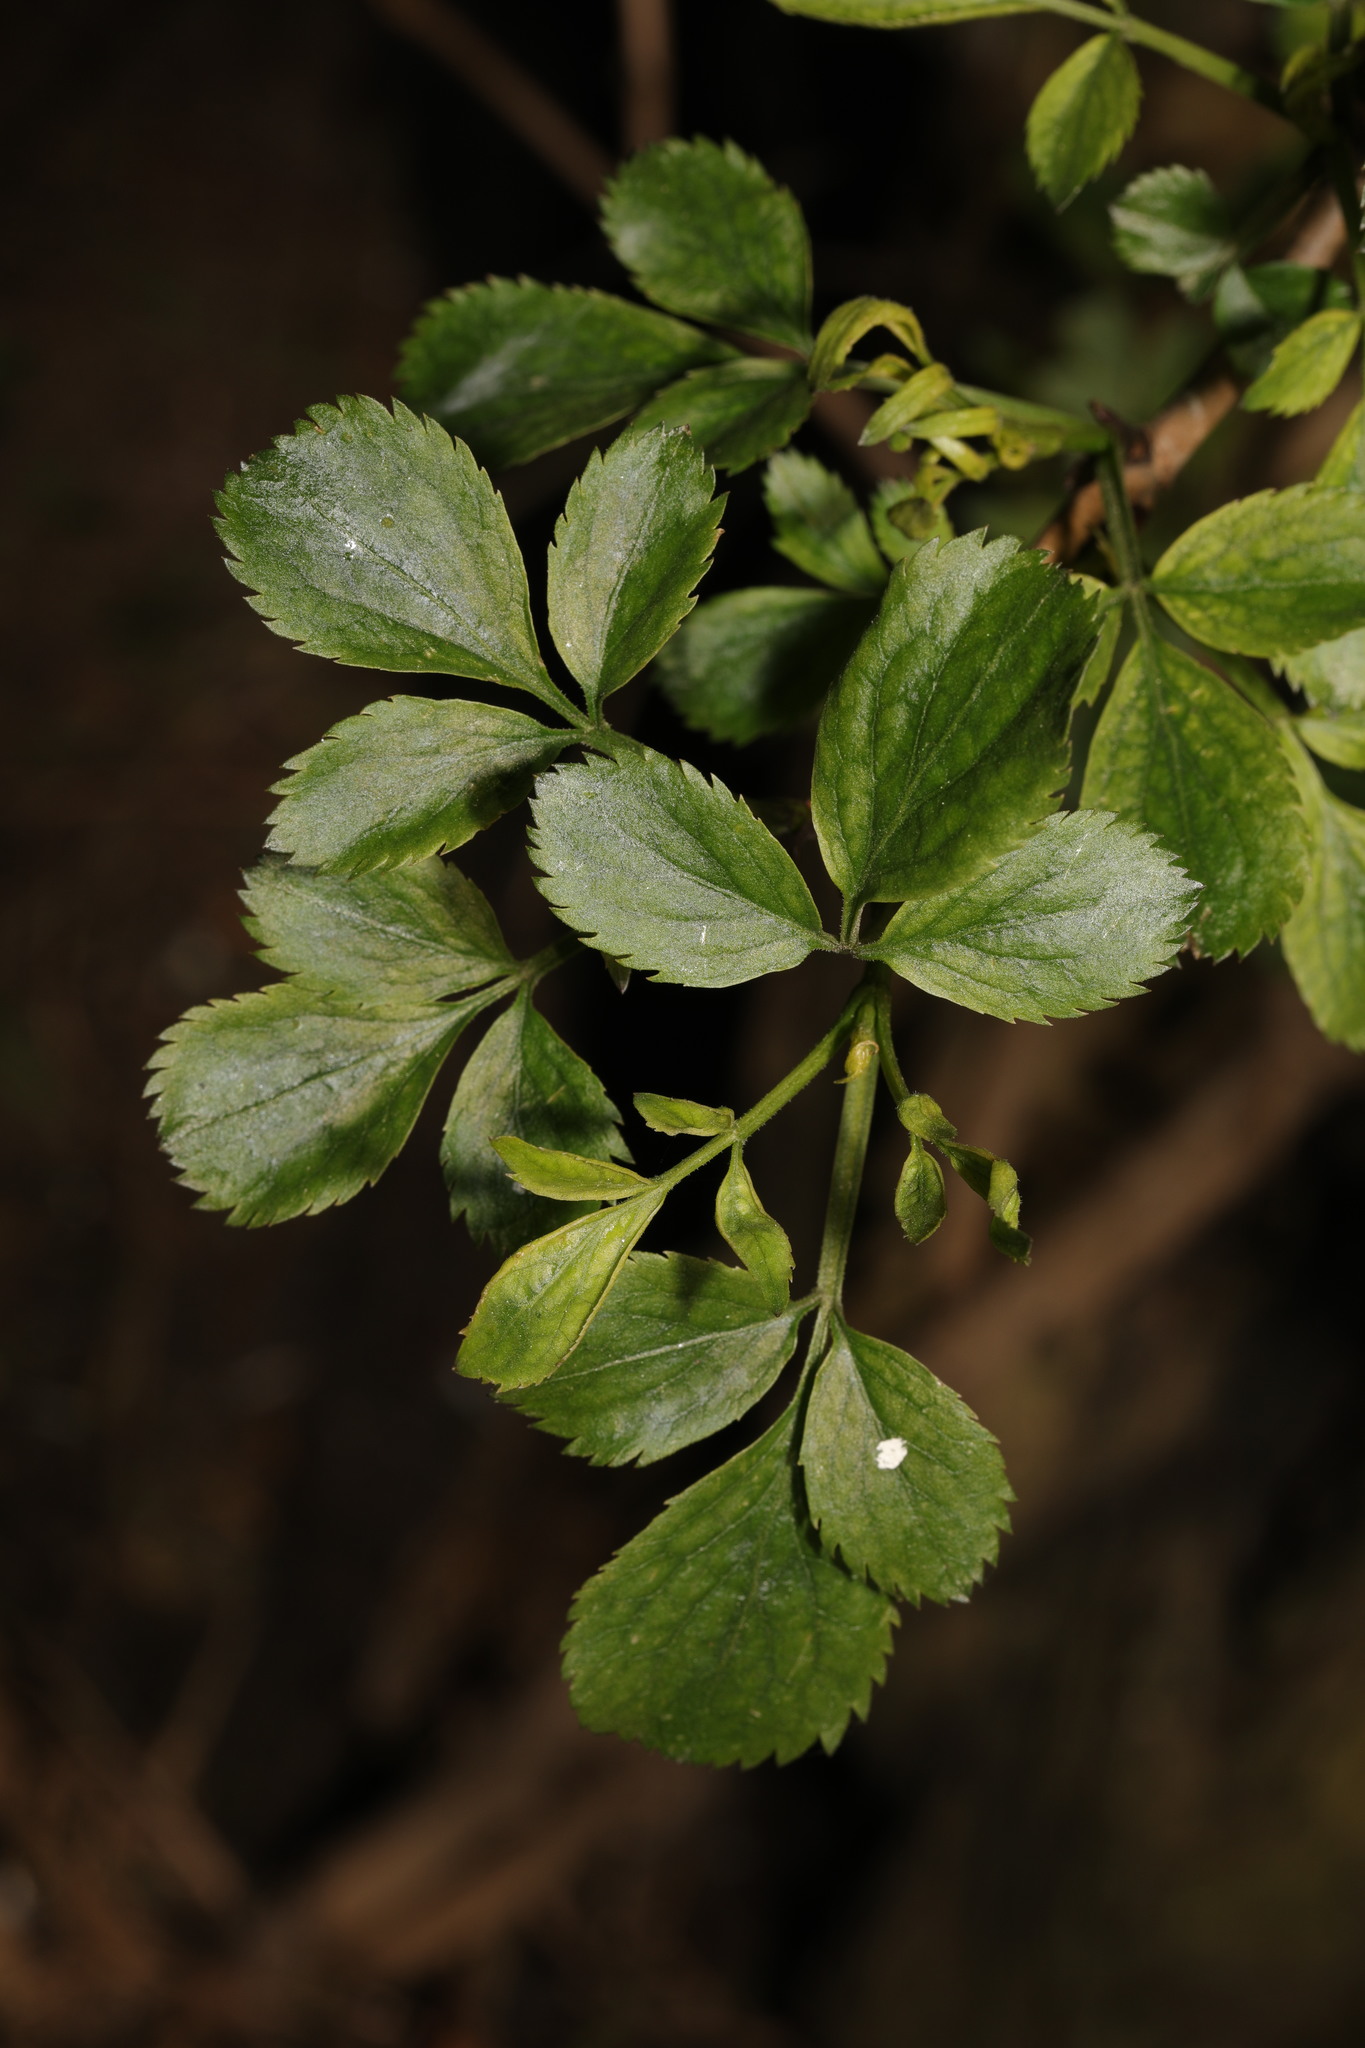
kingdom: Plantae
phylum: Tracheophyta
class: Magnoliopsida
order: Dipsacales
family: Viburnaceae
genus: Sambucus
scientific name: Sambucus nigra
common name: Elder
